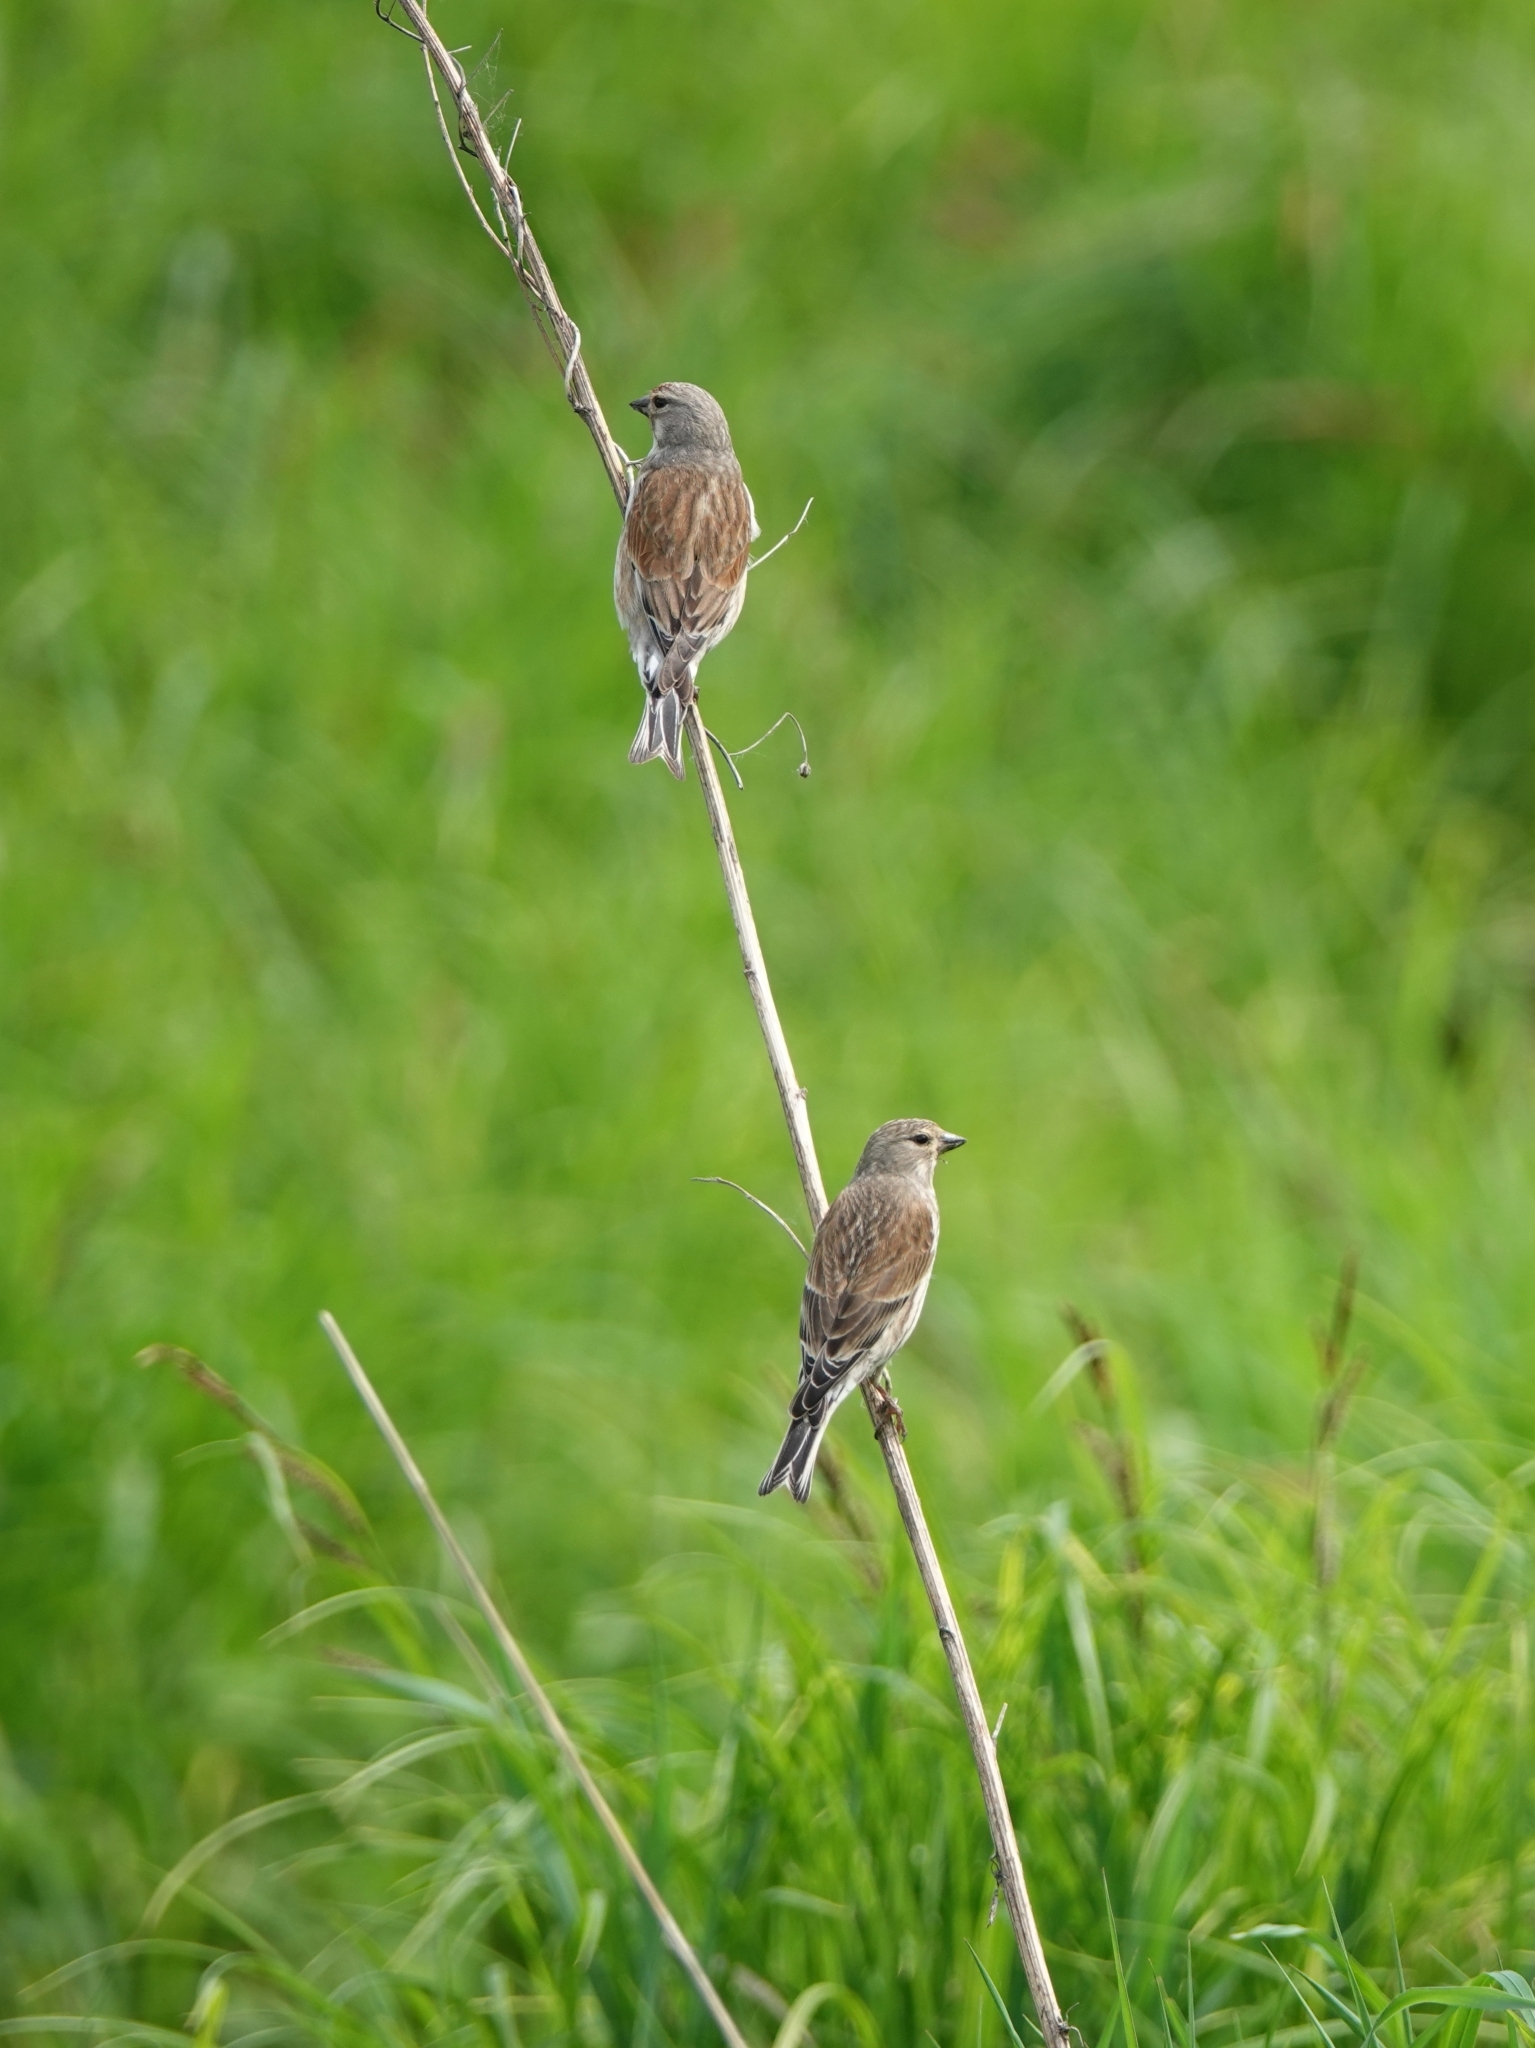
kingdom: Animalia
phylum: Chordata
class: Aves
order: Passeriformes
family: Fringillidae
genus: Linaria
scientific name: Linaria cannabina
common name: Common linnet
